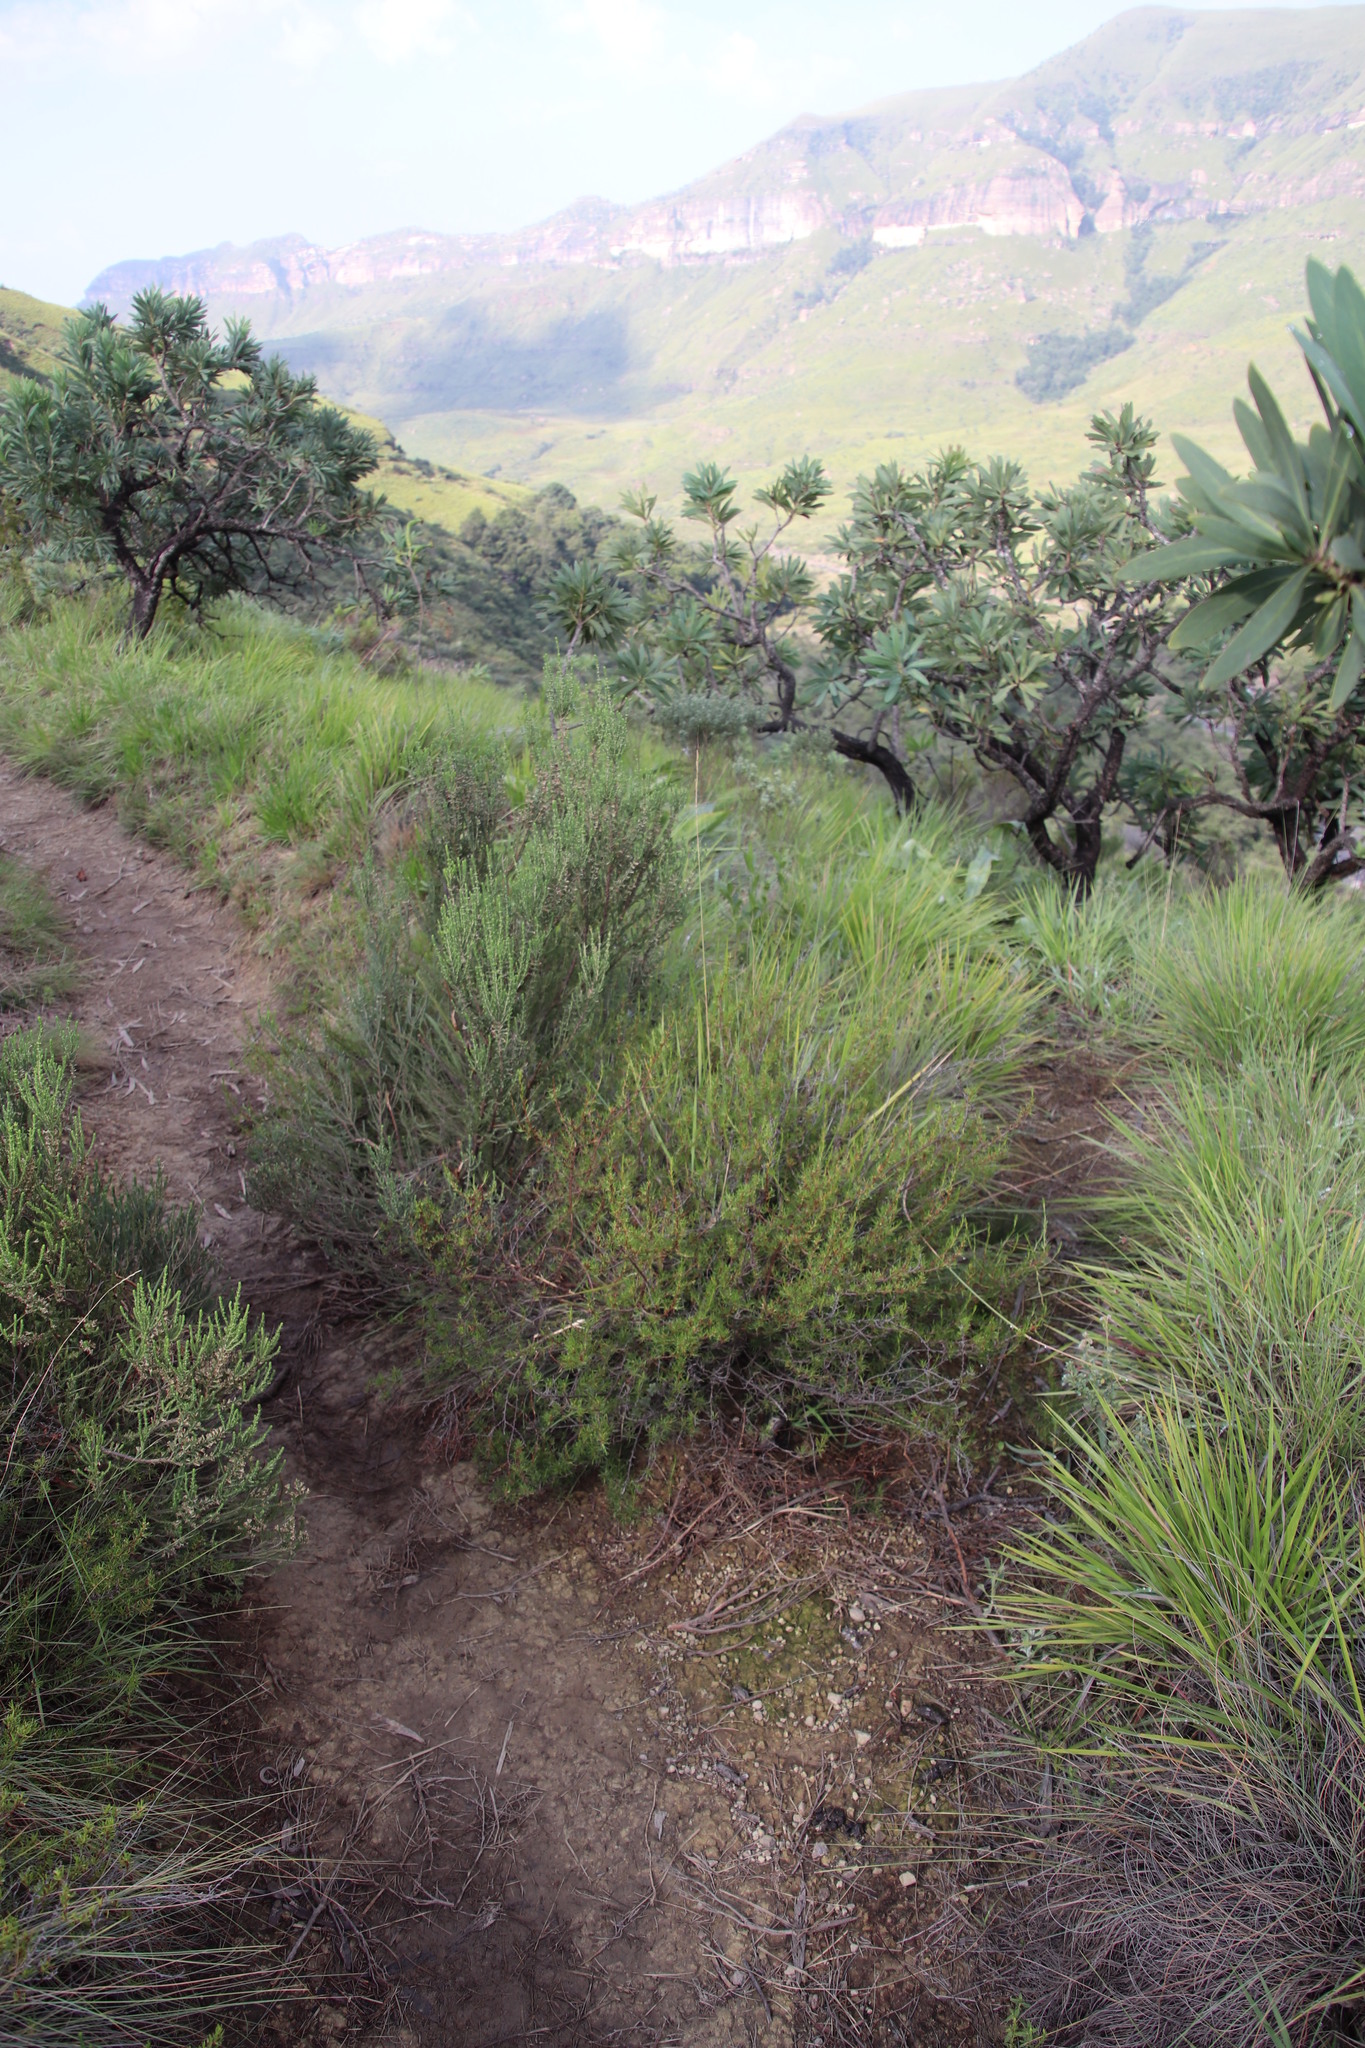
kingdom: Plantae
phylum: Tracheophyta
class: Magnoliopsida
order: Rosales
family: Rosaceae
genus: Cliffortia
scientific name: Cliffortia repens
